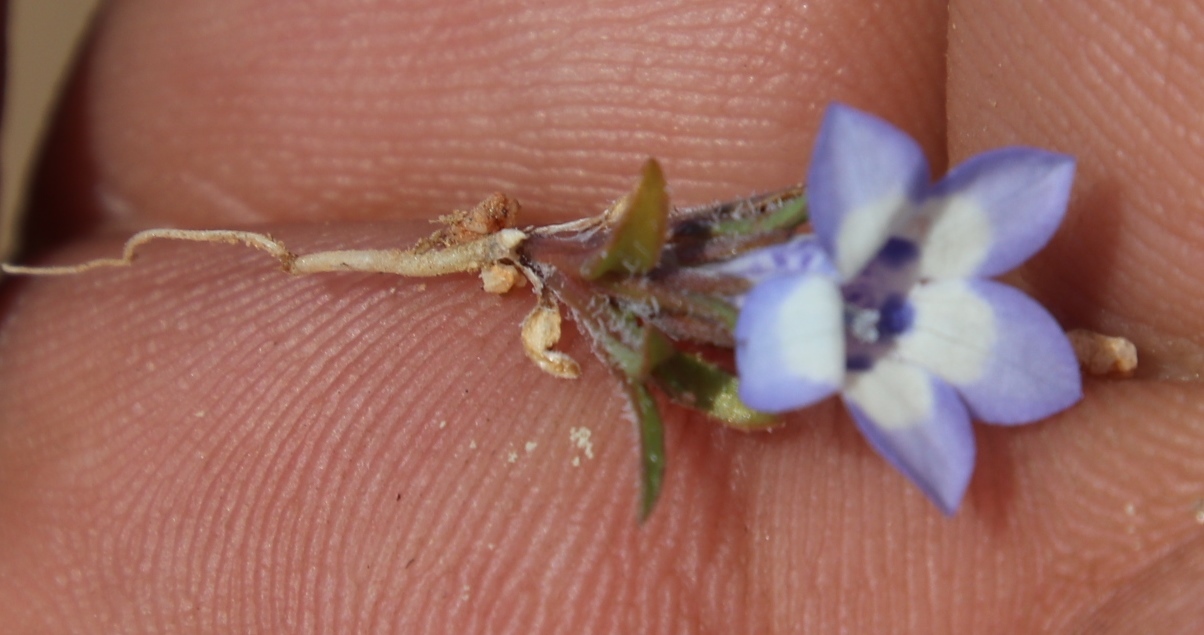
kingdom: Plantae
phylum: Tracheophyta
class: Magnoliopsida
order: Asterales
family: Campanulaceae
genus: Wahlenbergia
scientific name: Wahlenbergia acaulis
